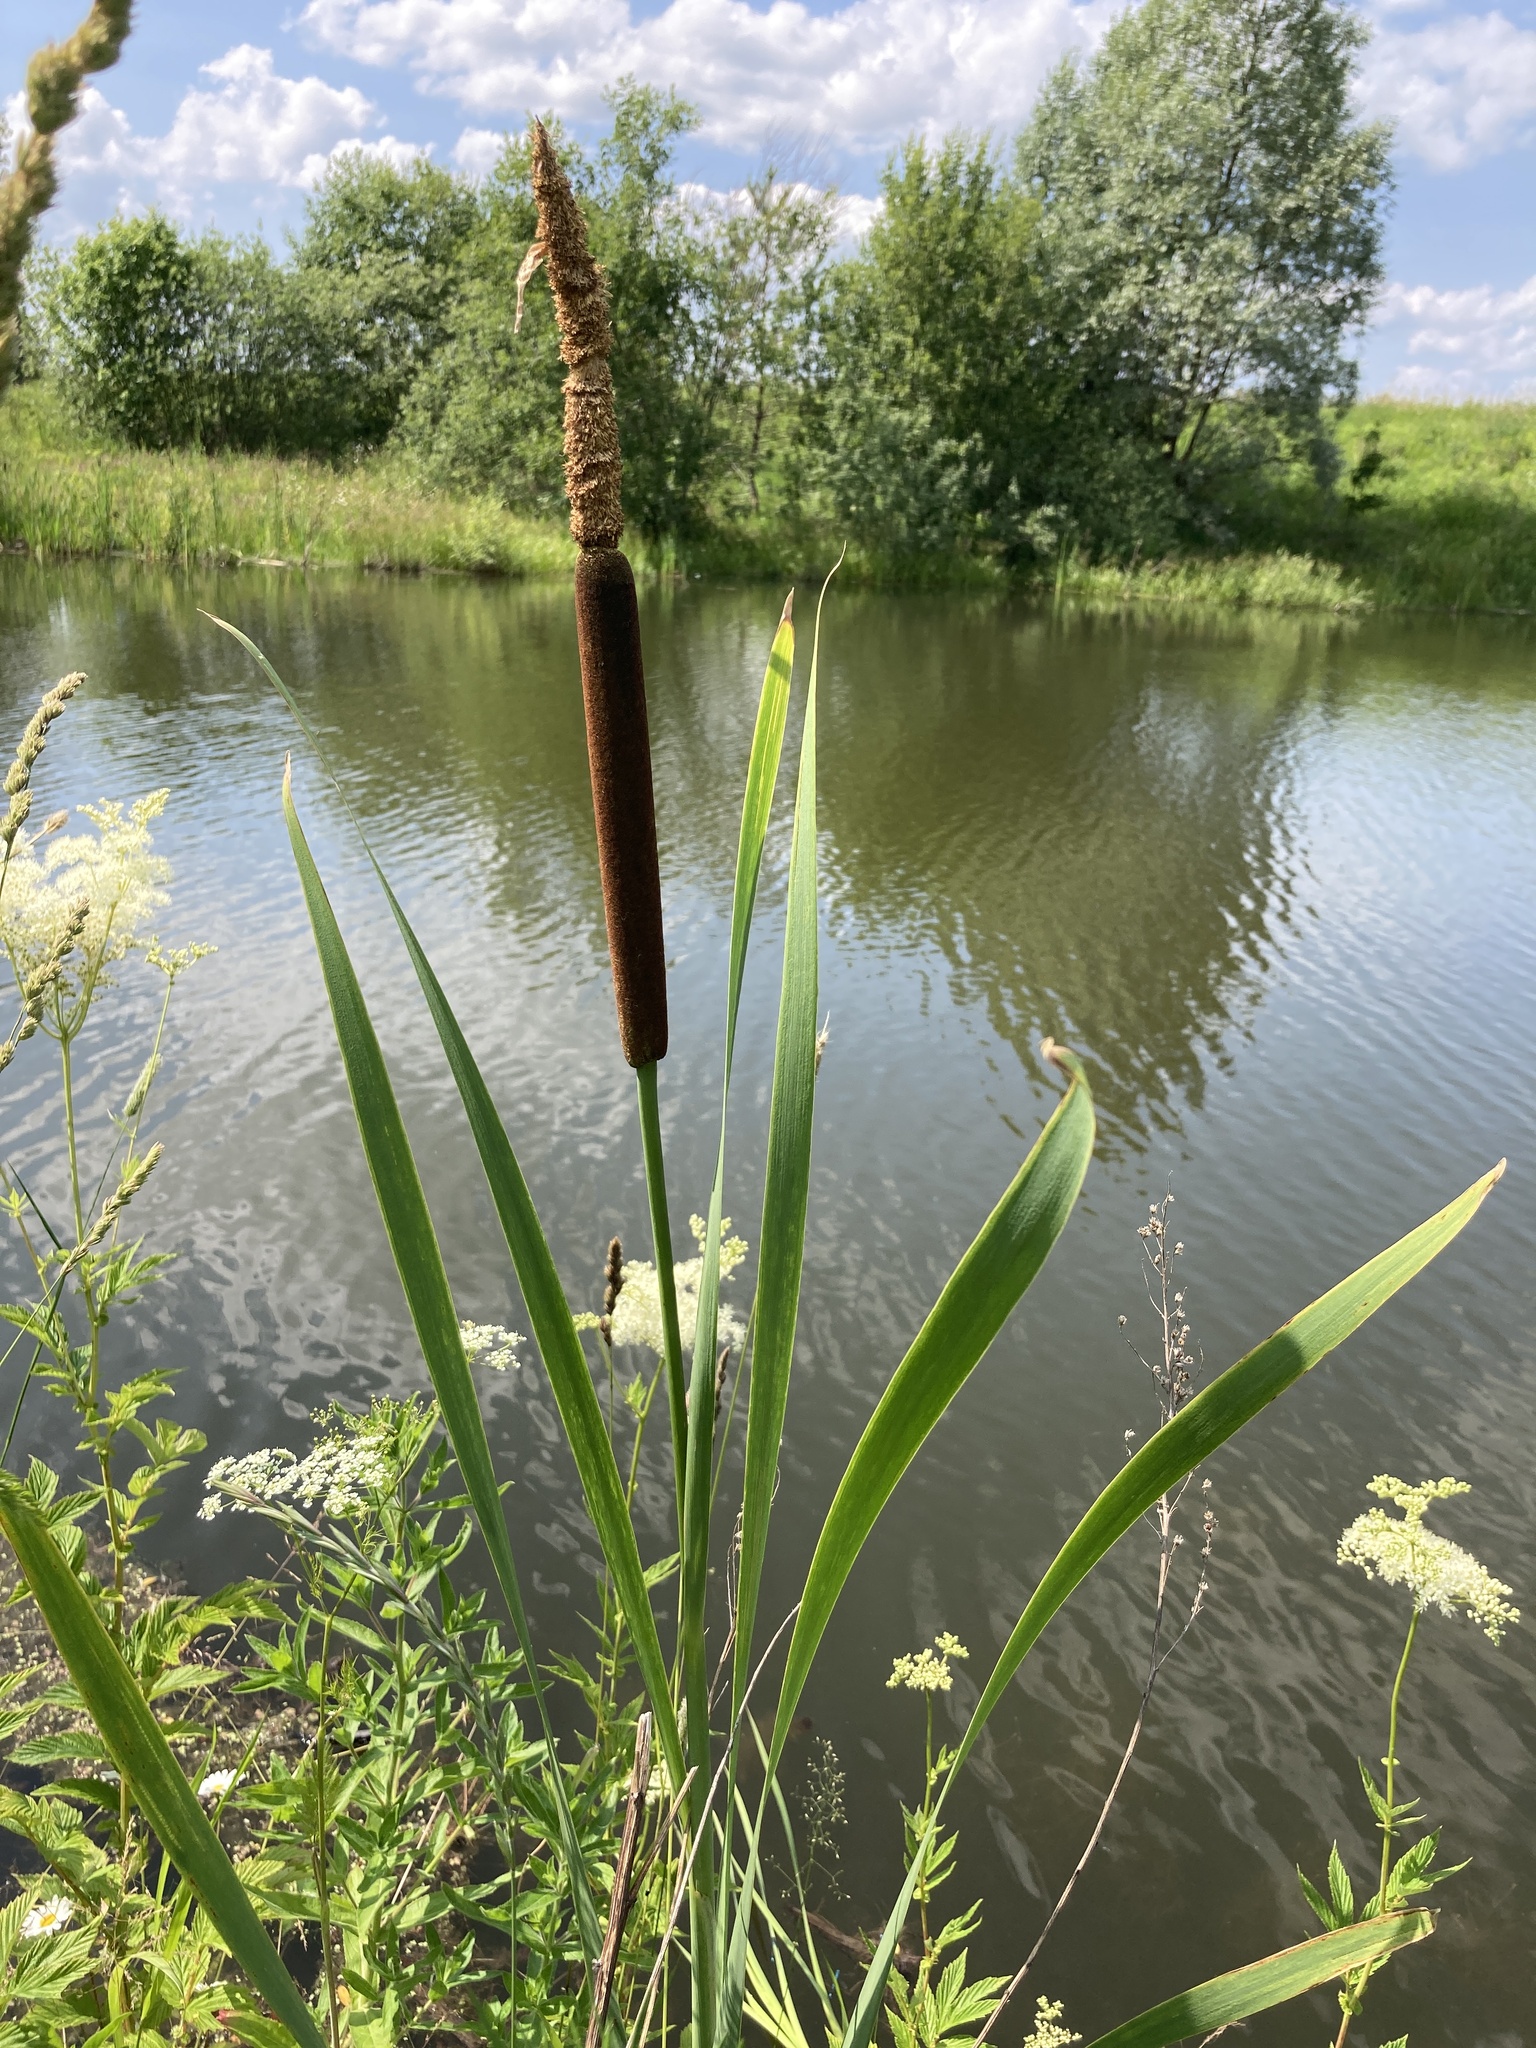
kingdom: Plantae
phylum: Tracheophyta
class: Liliopsida
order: Poales
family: Typhaceae
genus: Typha
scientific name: Typha latifolia
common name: Broadleaf cattail
